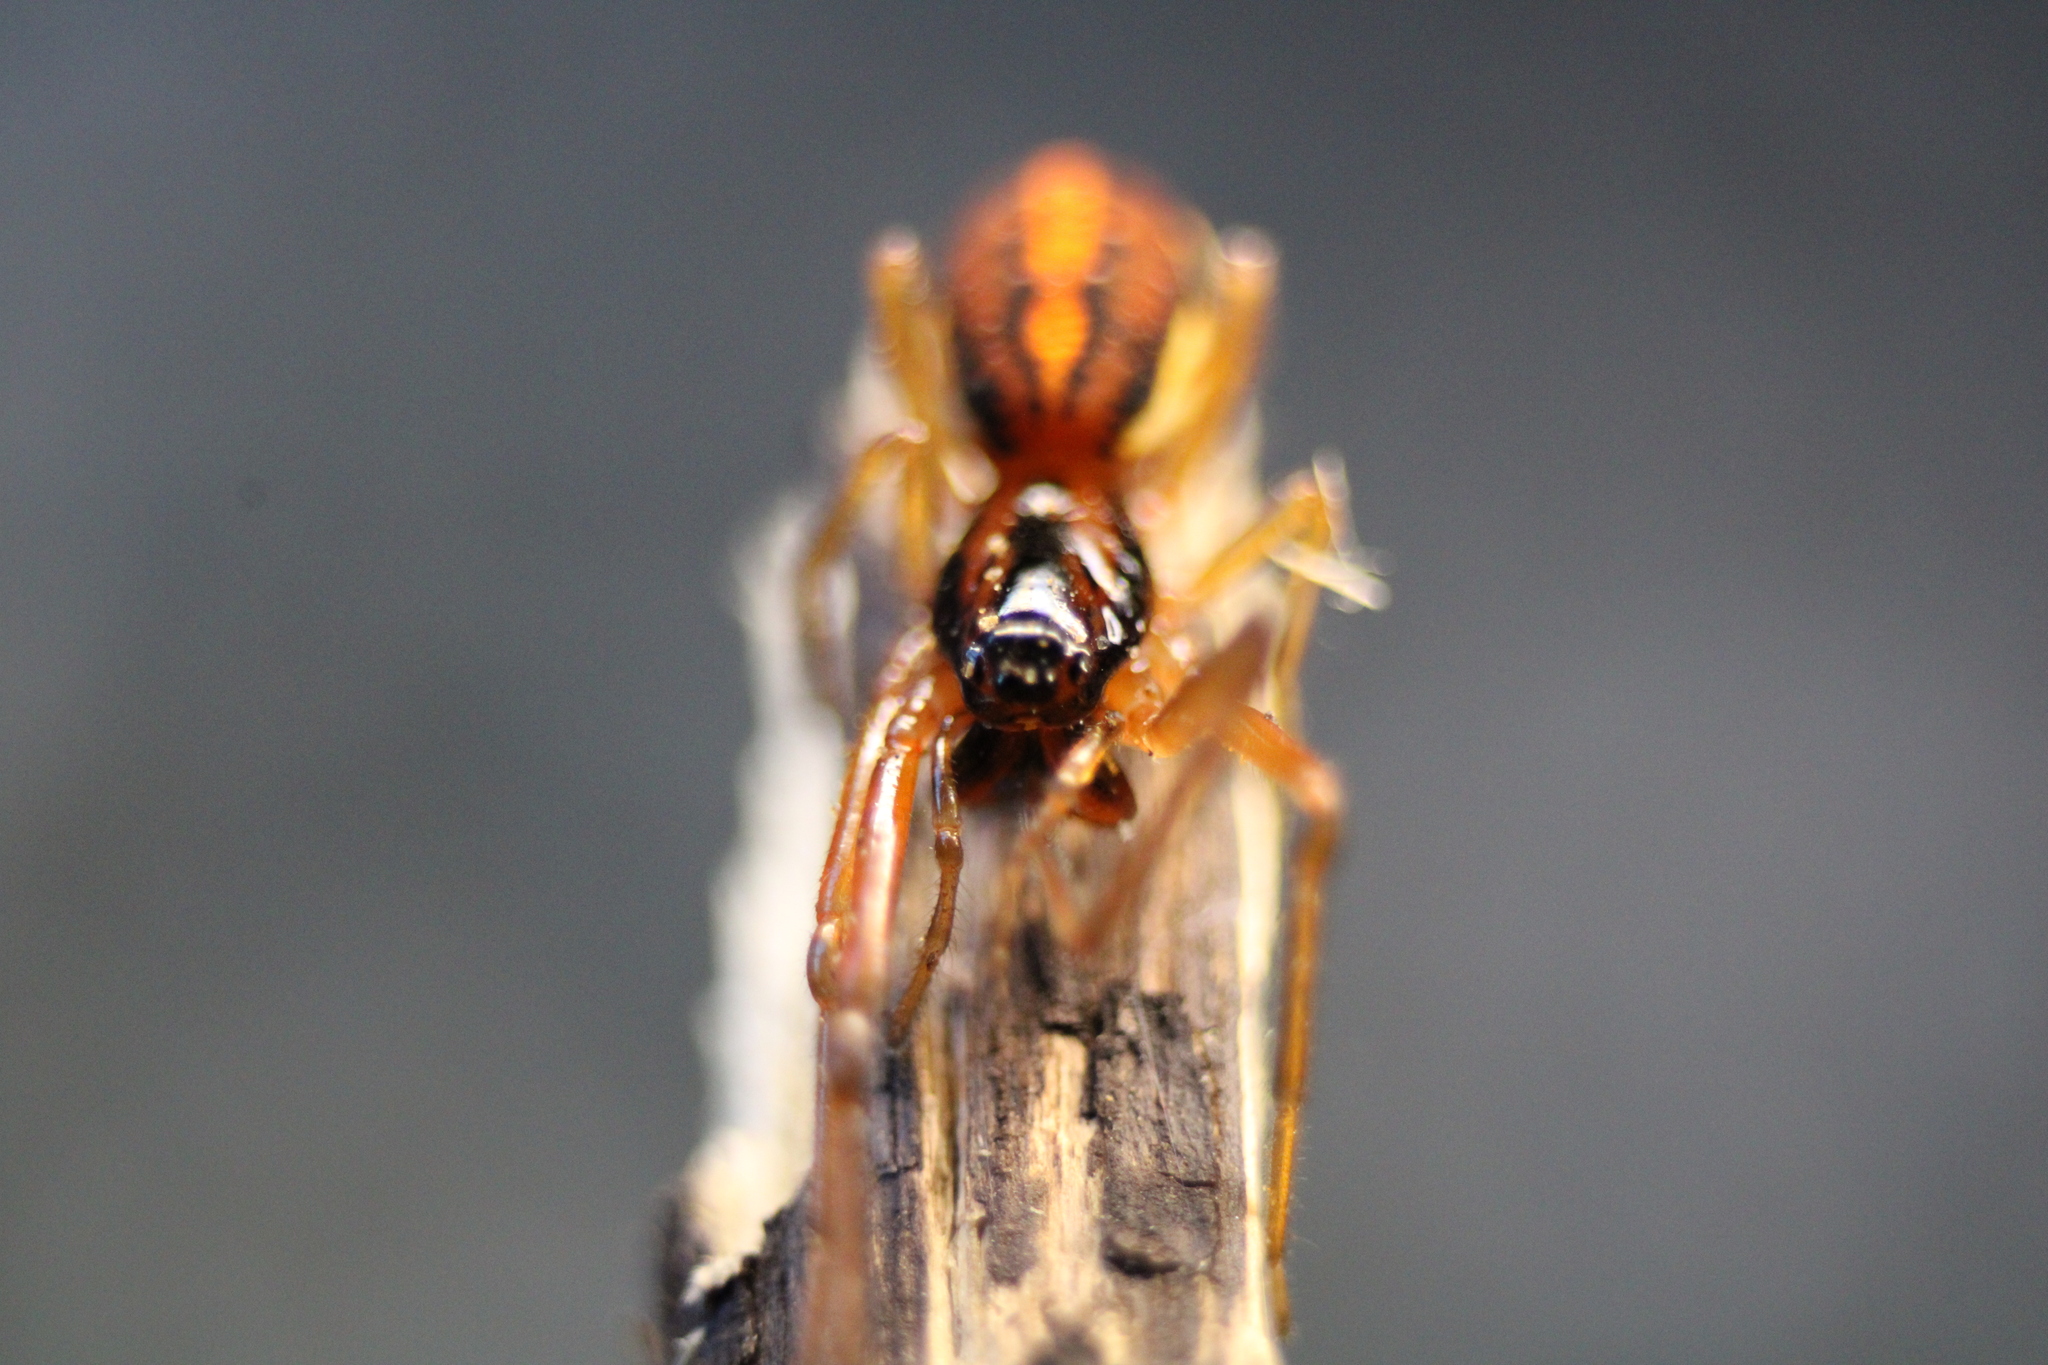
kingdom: Animalia
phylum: Arthropoda
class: Arachnida
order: Araneae
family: Tetragnathidae
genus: Pachygnatha
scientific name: Pachygnatha autumnalis
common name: Big-eyed thick-jawed spider
